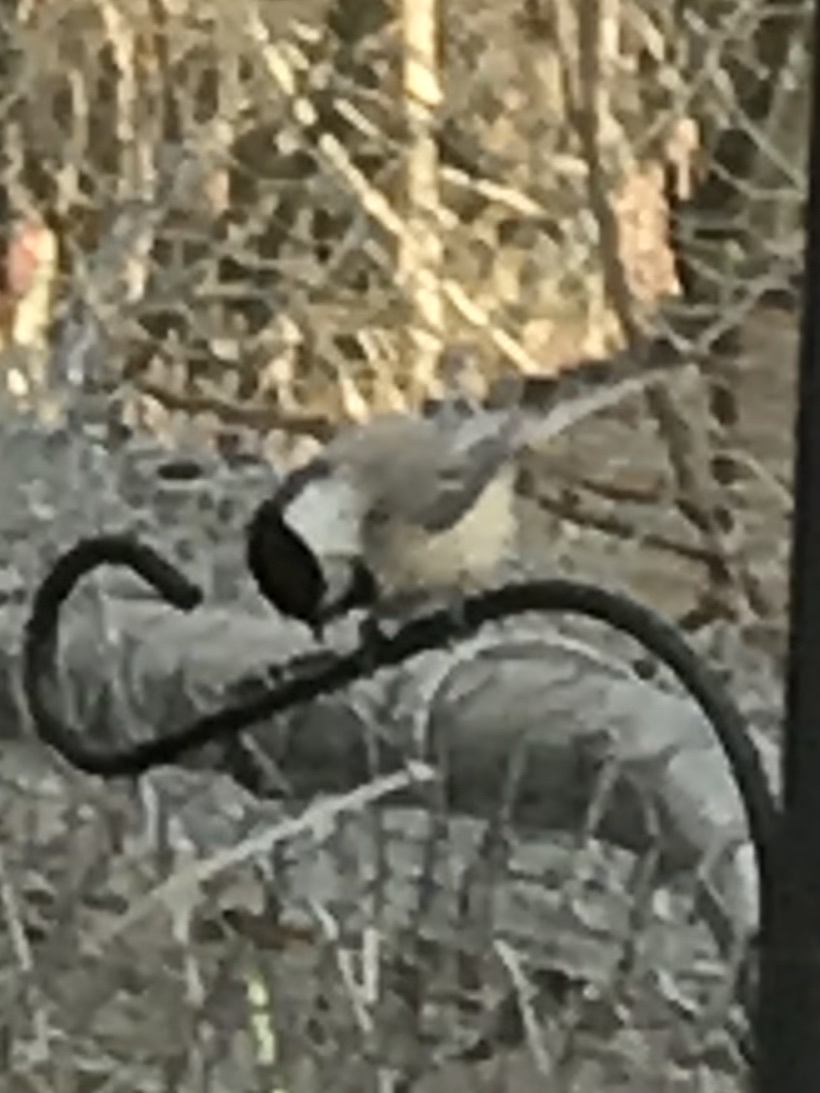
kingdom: Animalia
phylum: Chordata
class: Aves
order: Passeriformes
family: Paridae
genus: Poecile
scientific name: Poecile carolinensis
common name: Carolina chickadee
